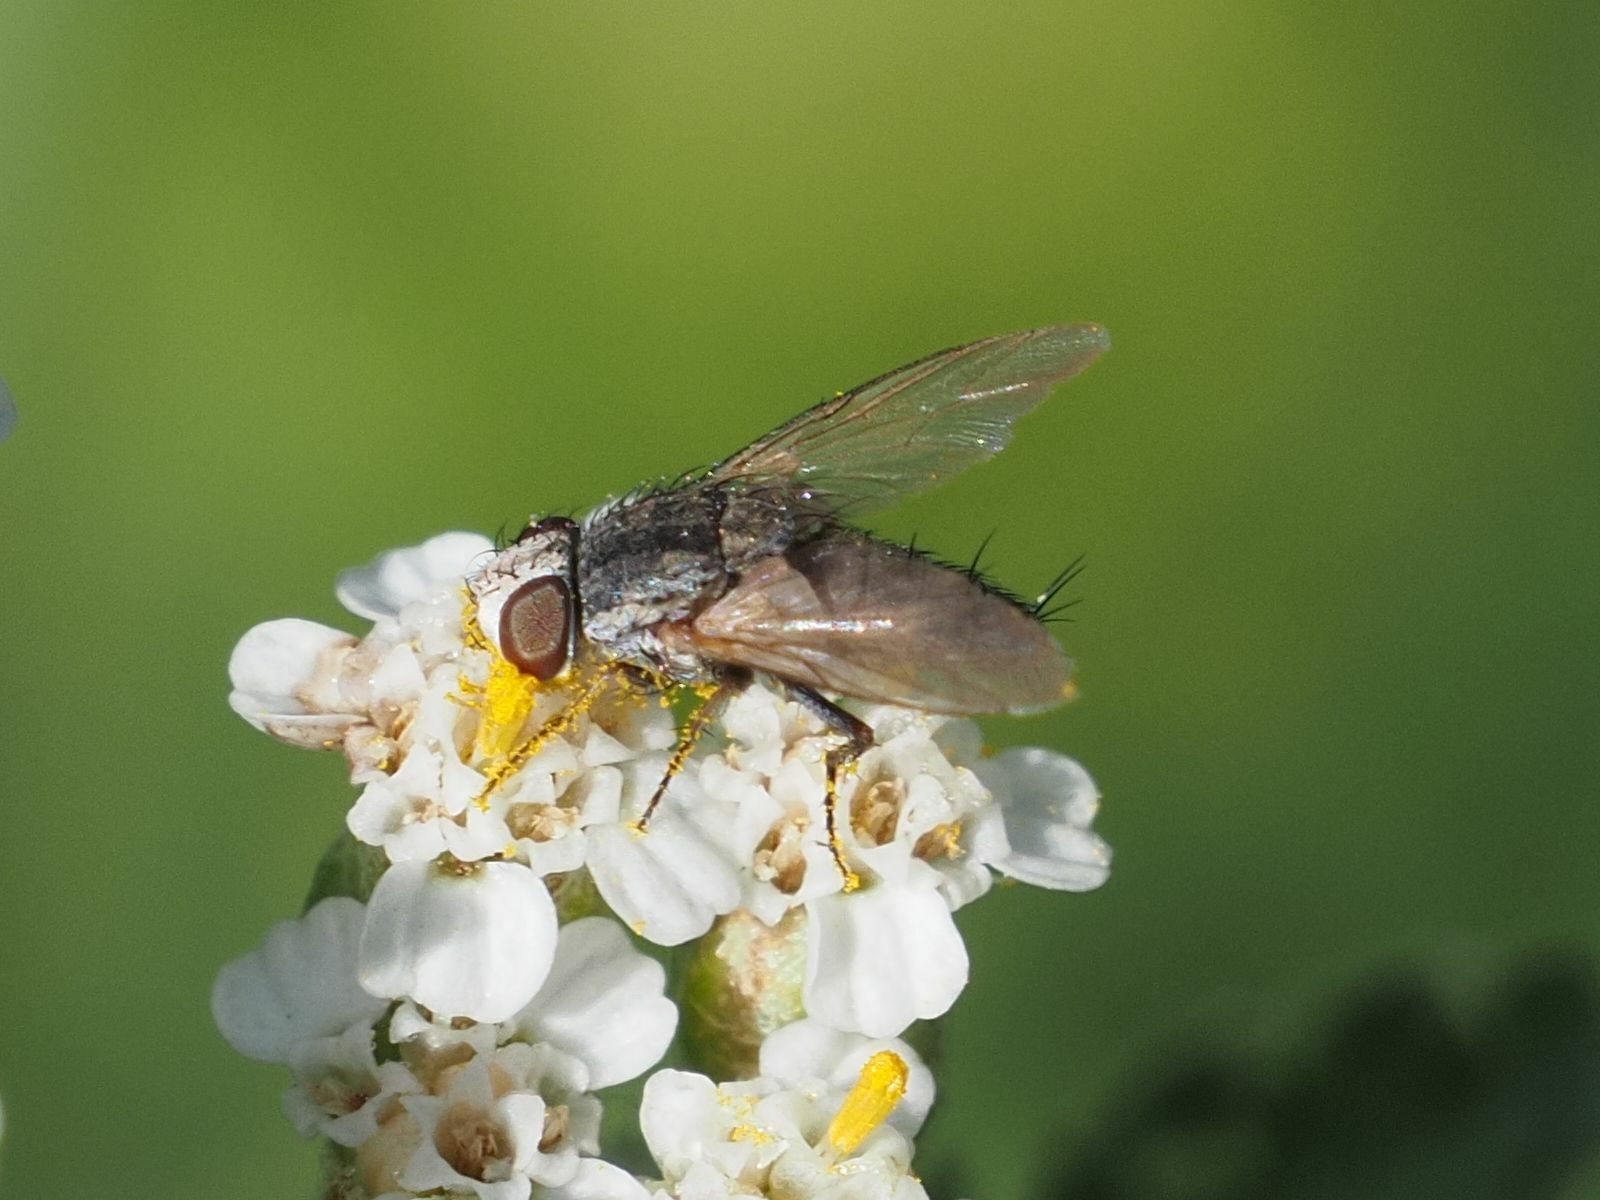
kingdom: Animalia
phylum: Arthropoda
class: Insecta
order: Diptera
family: Sarcophagidae
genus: Taxigramma
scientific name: Taxigramma
